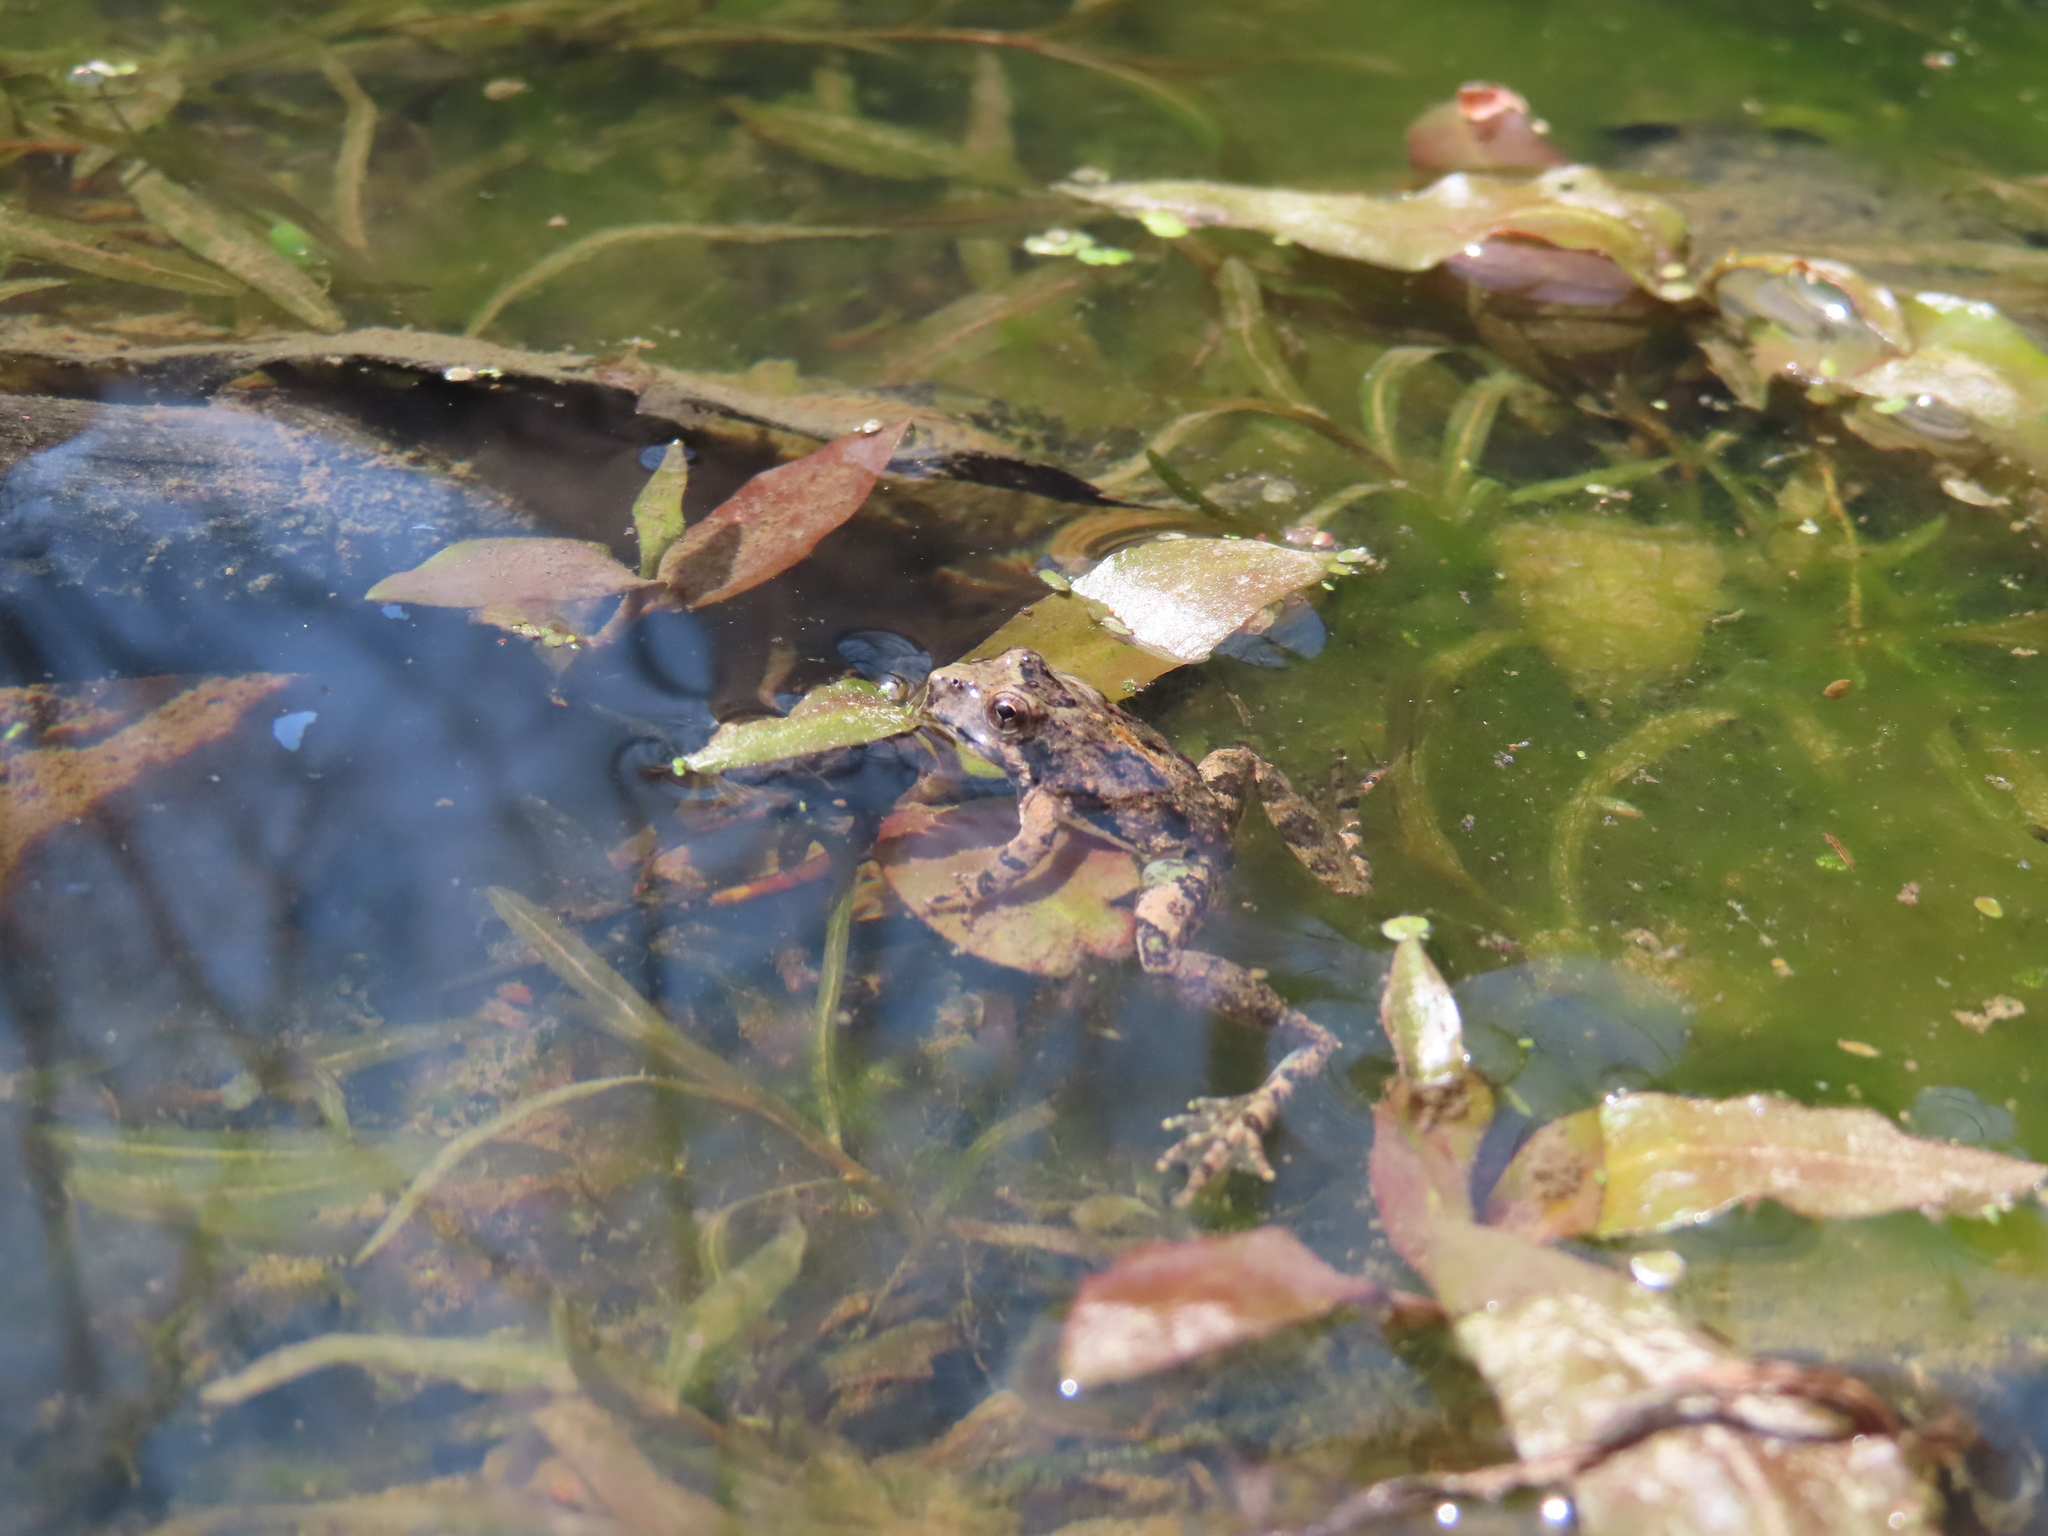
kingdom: Animalia
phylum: Chordata
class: Amphibia
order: Anura
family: Hylidae
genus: Acris
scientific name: Acris blanchardi
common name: Blanchard's cricket frog
